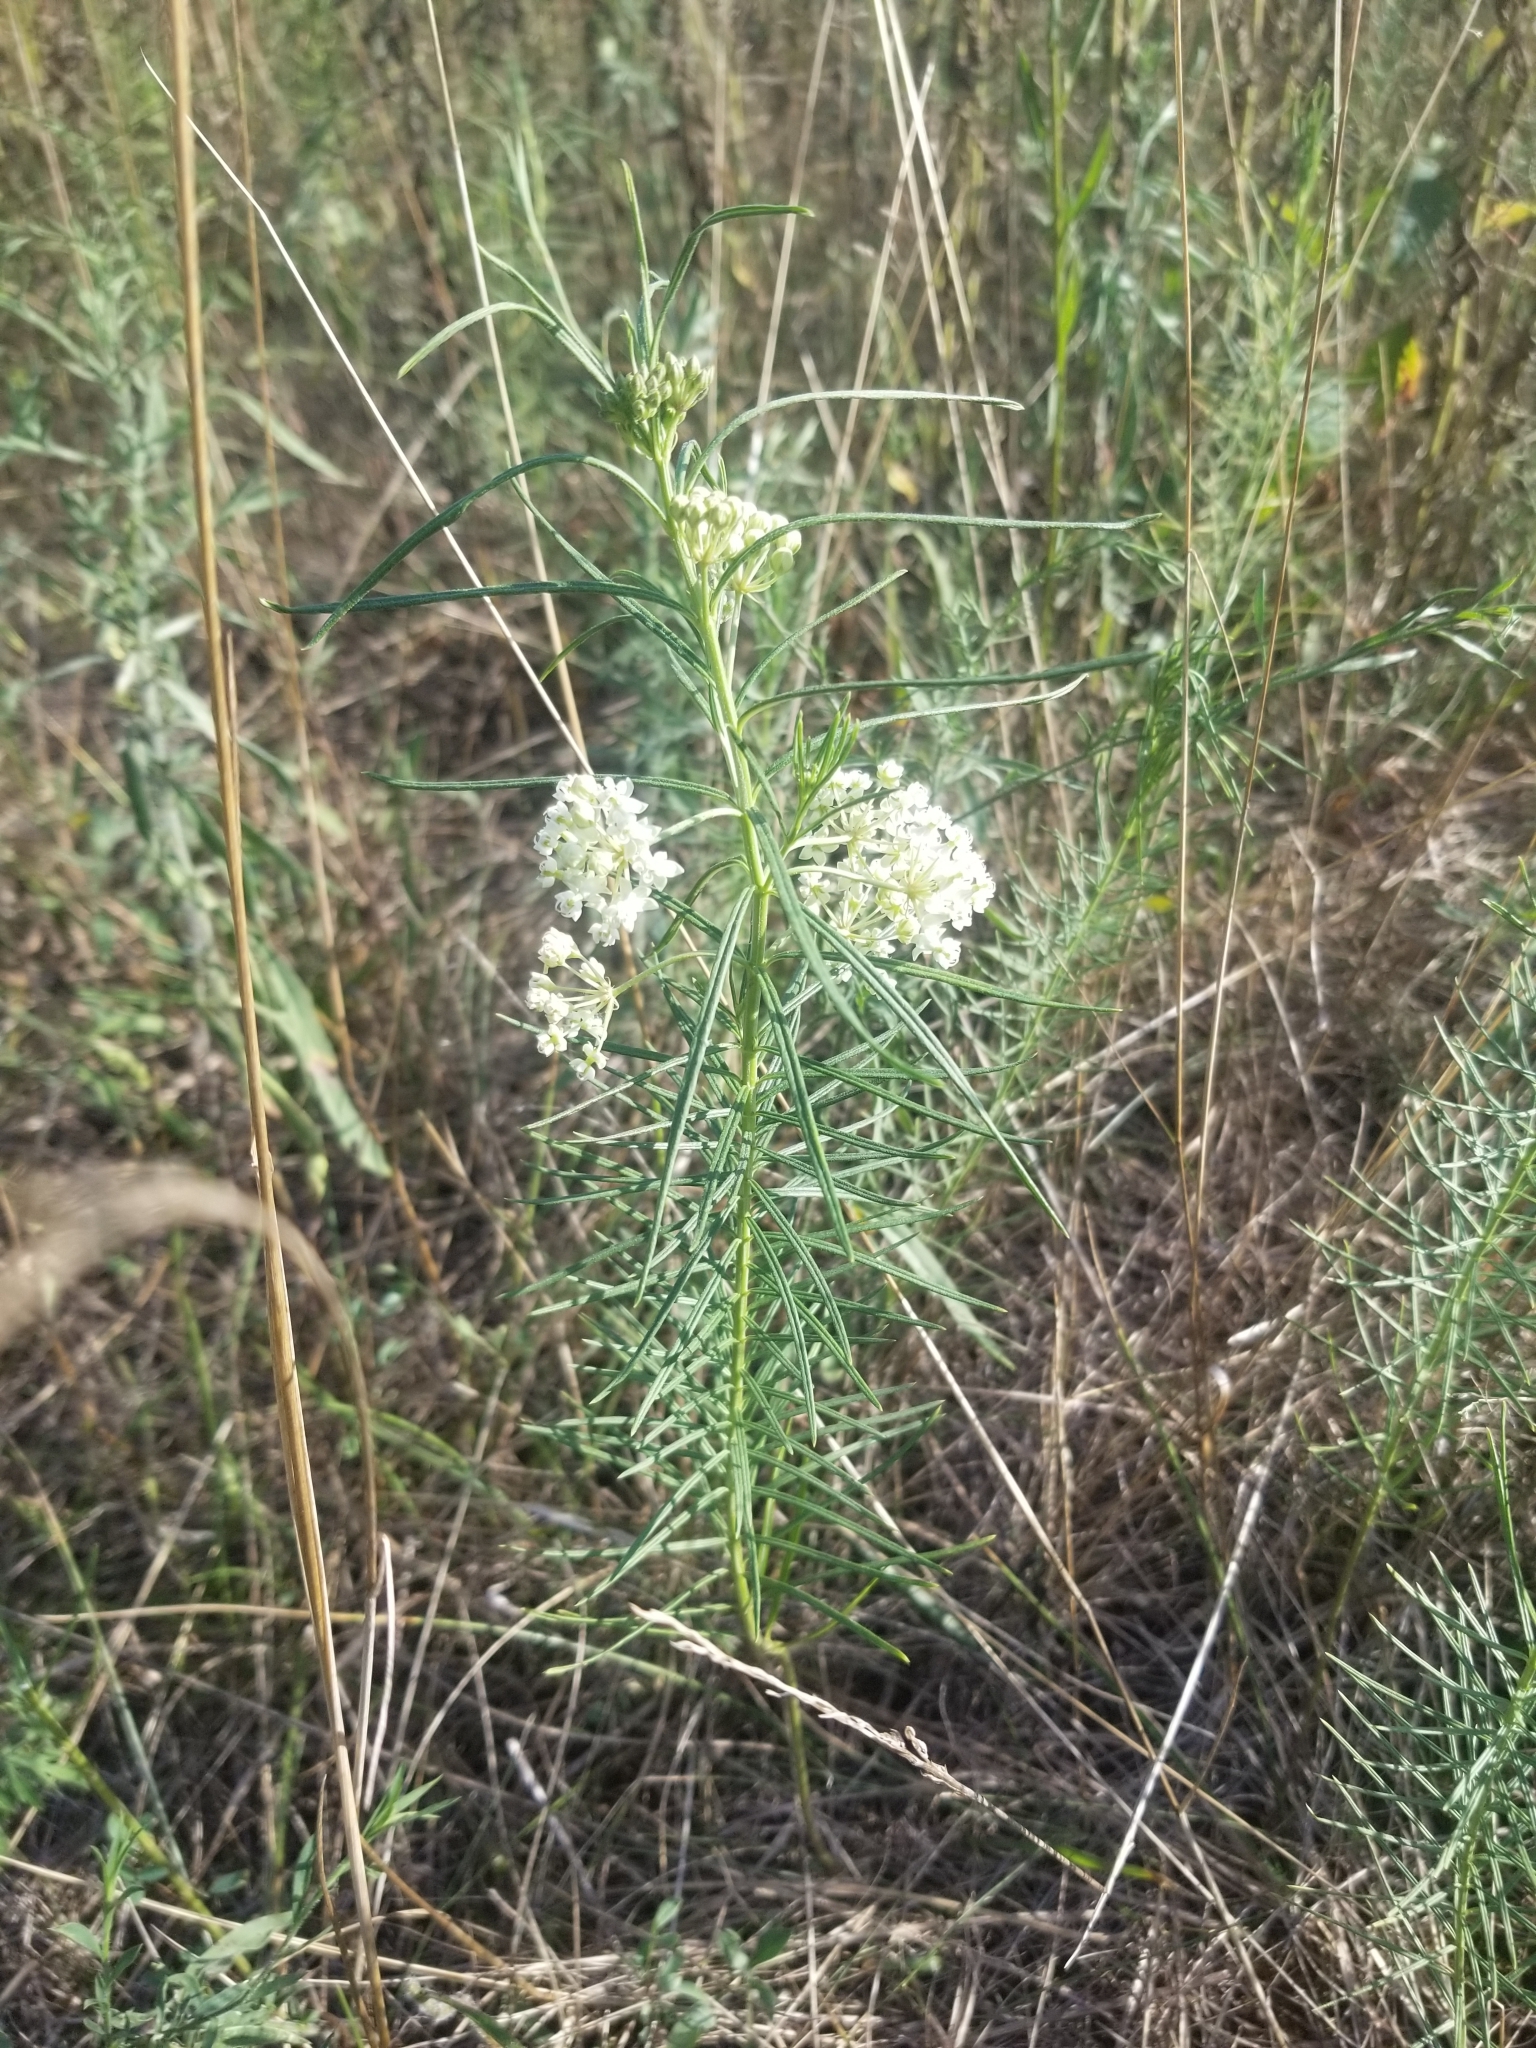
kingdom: Plantae
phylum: Tracheophyta
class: Magnoliopsida
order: Gentianales
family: Apocynaceae
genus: Asclepias
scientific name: Asclepias verticillata
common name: Eastern whorled milkweed
